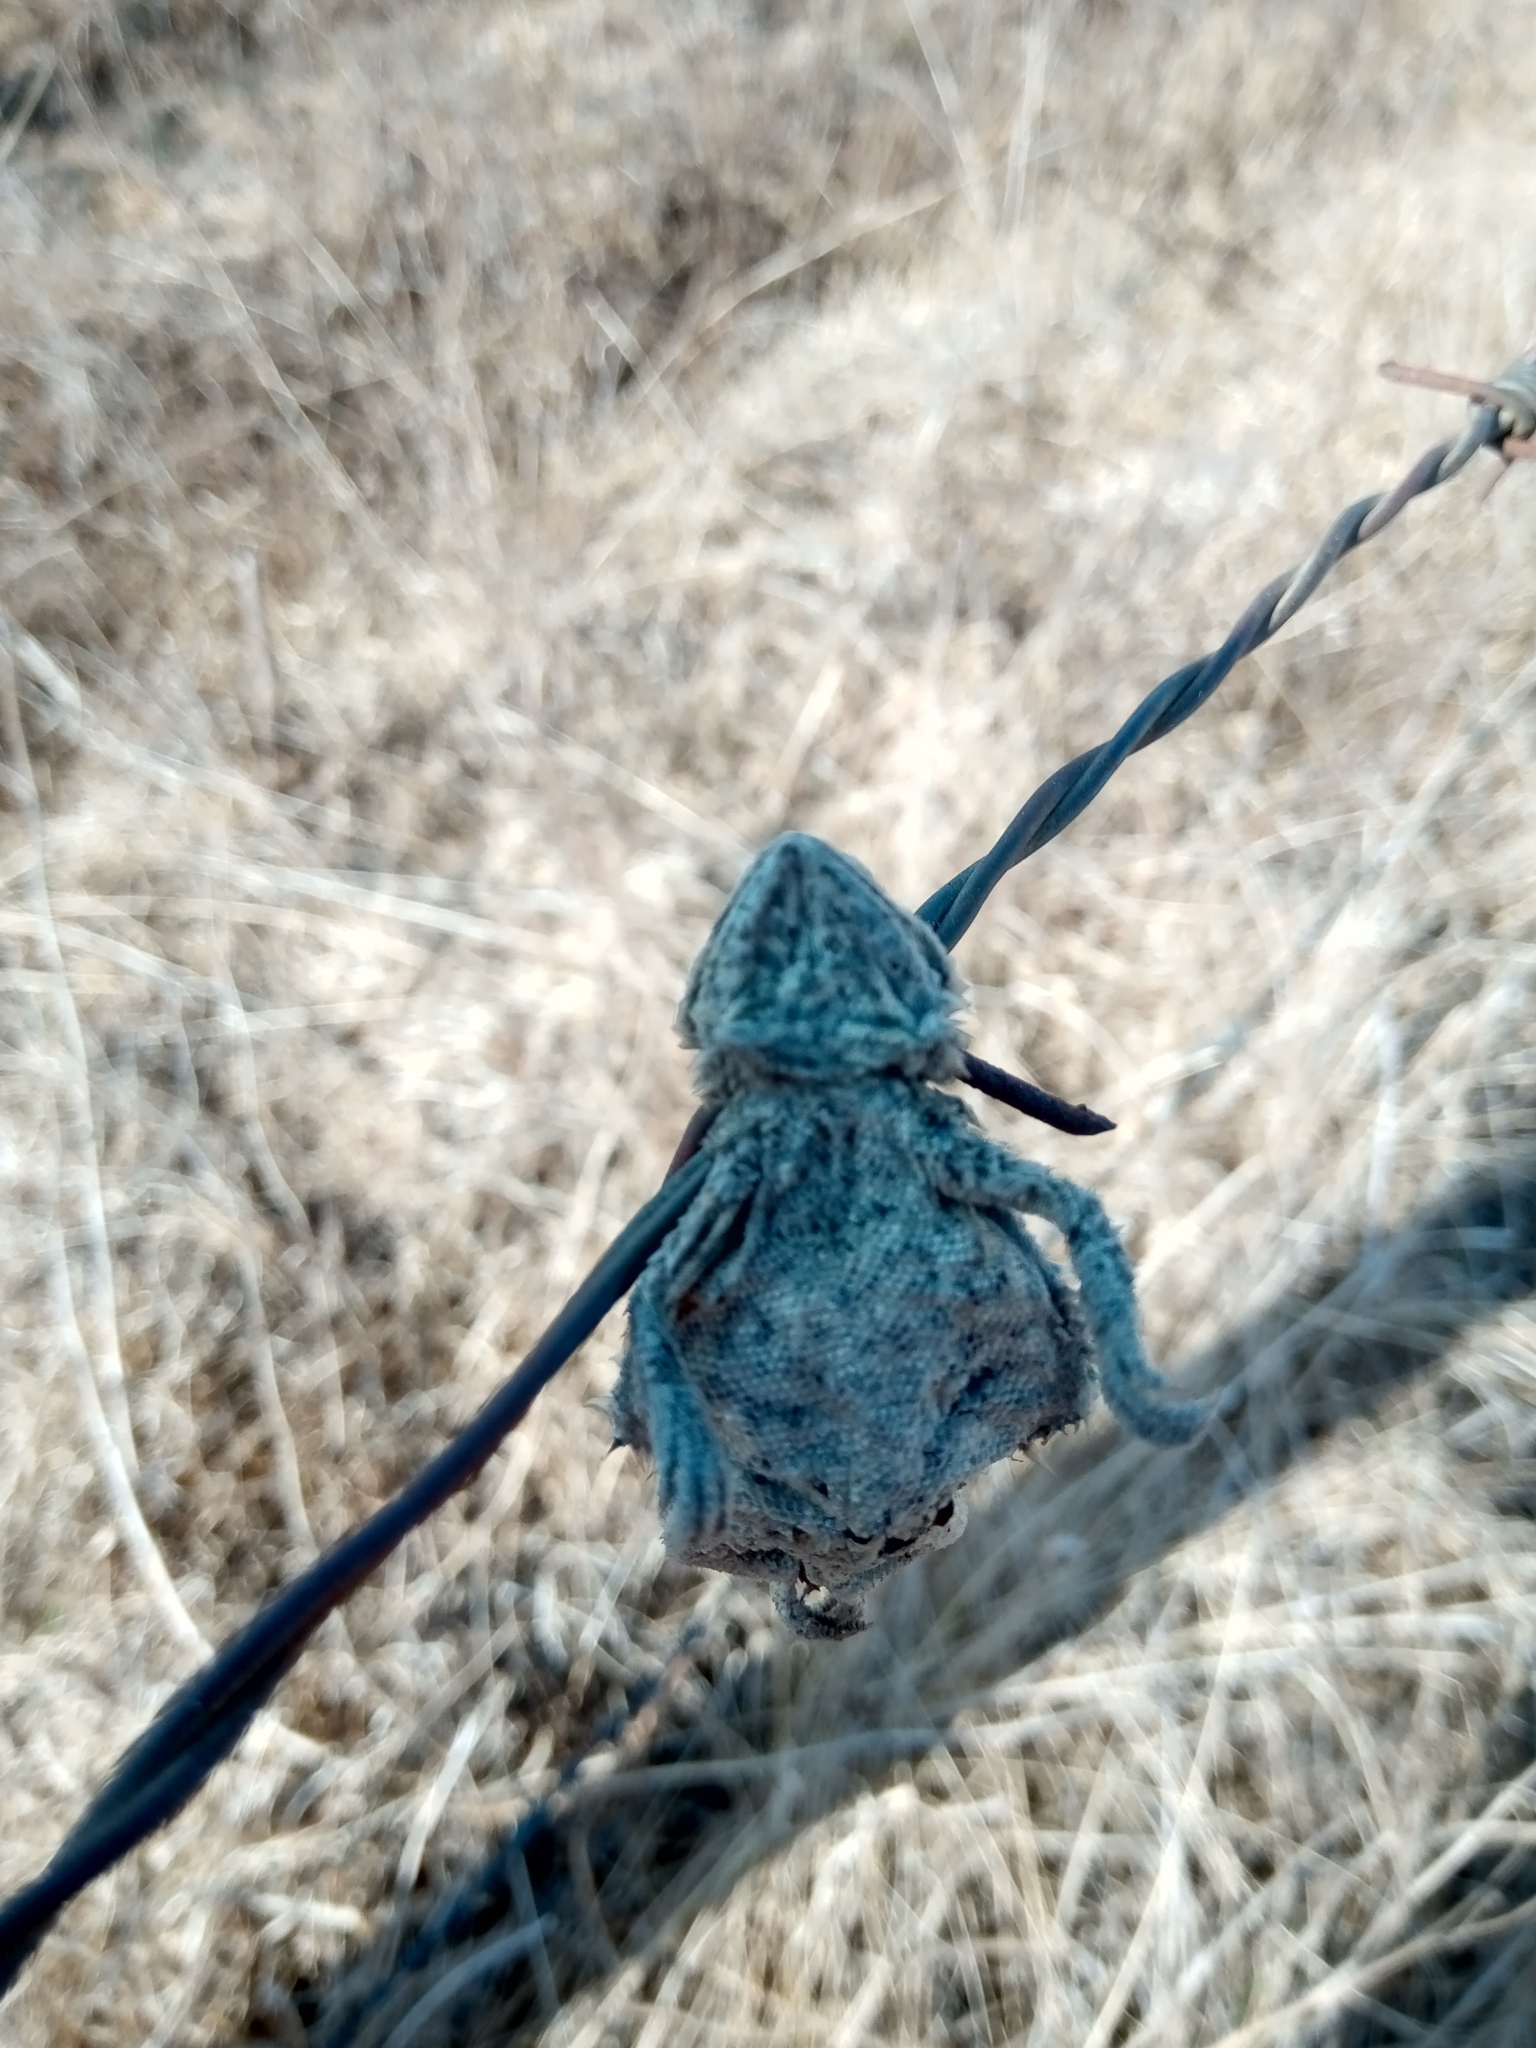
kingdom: Animalia
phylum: Chordata
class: Squamata
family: Phrynosomatidae
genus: Phrynosoma
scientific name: Phrynosoma orbiculare
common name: Mountain horned lizard
